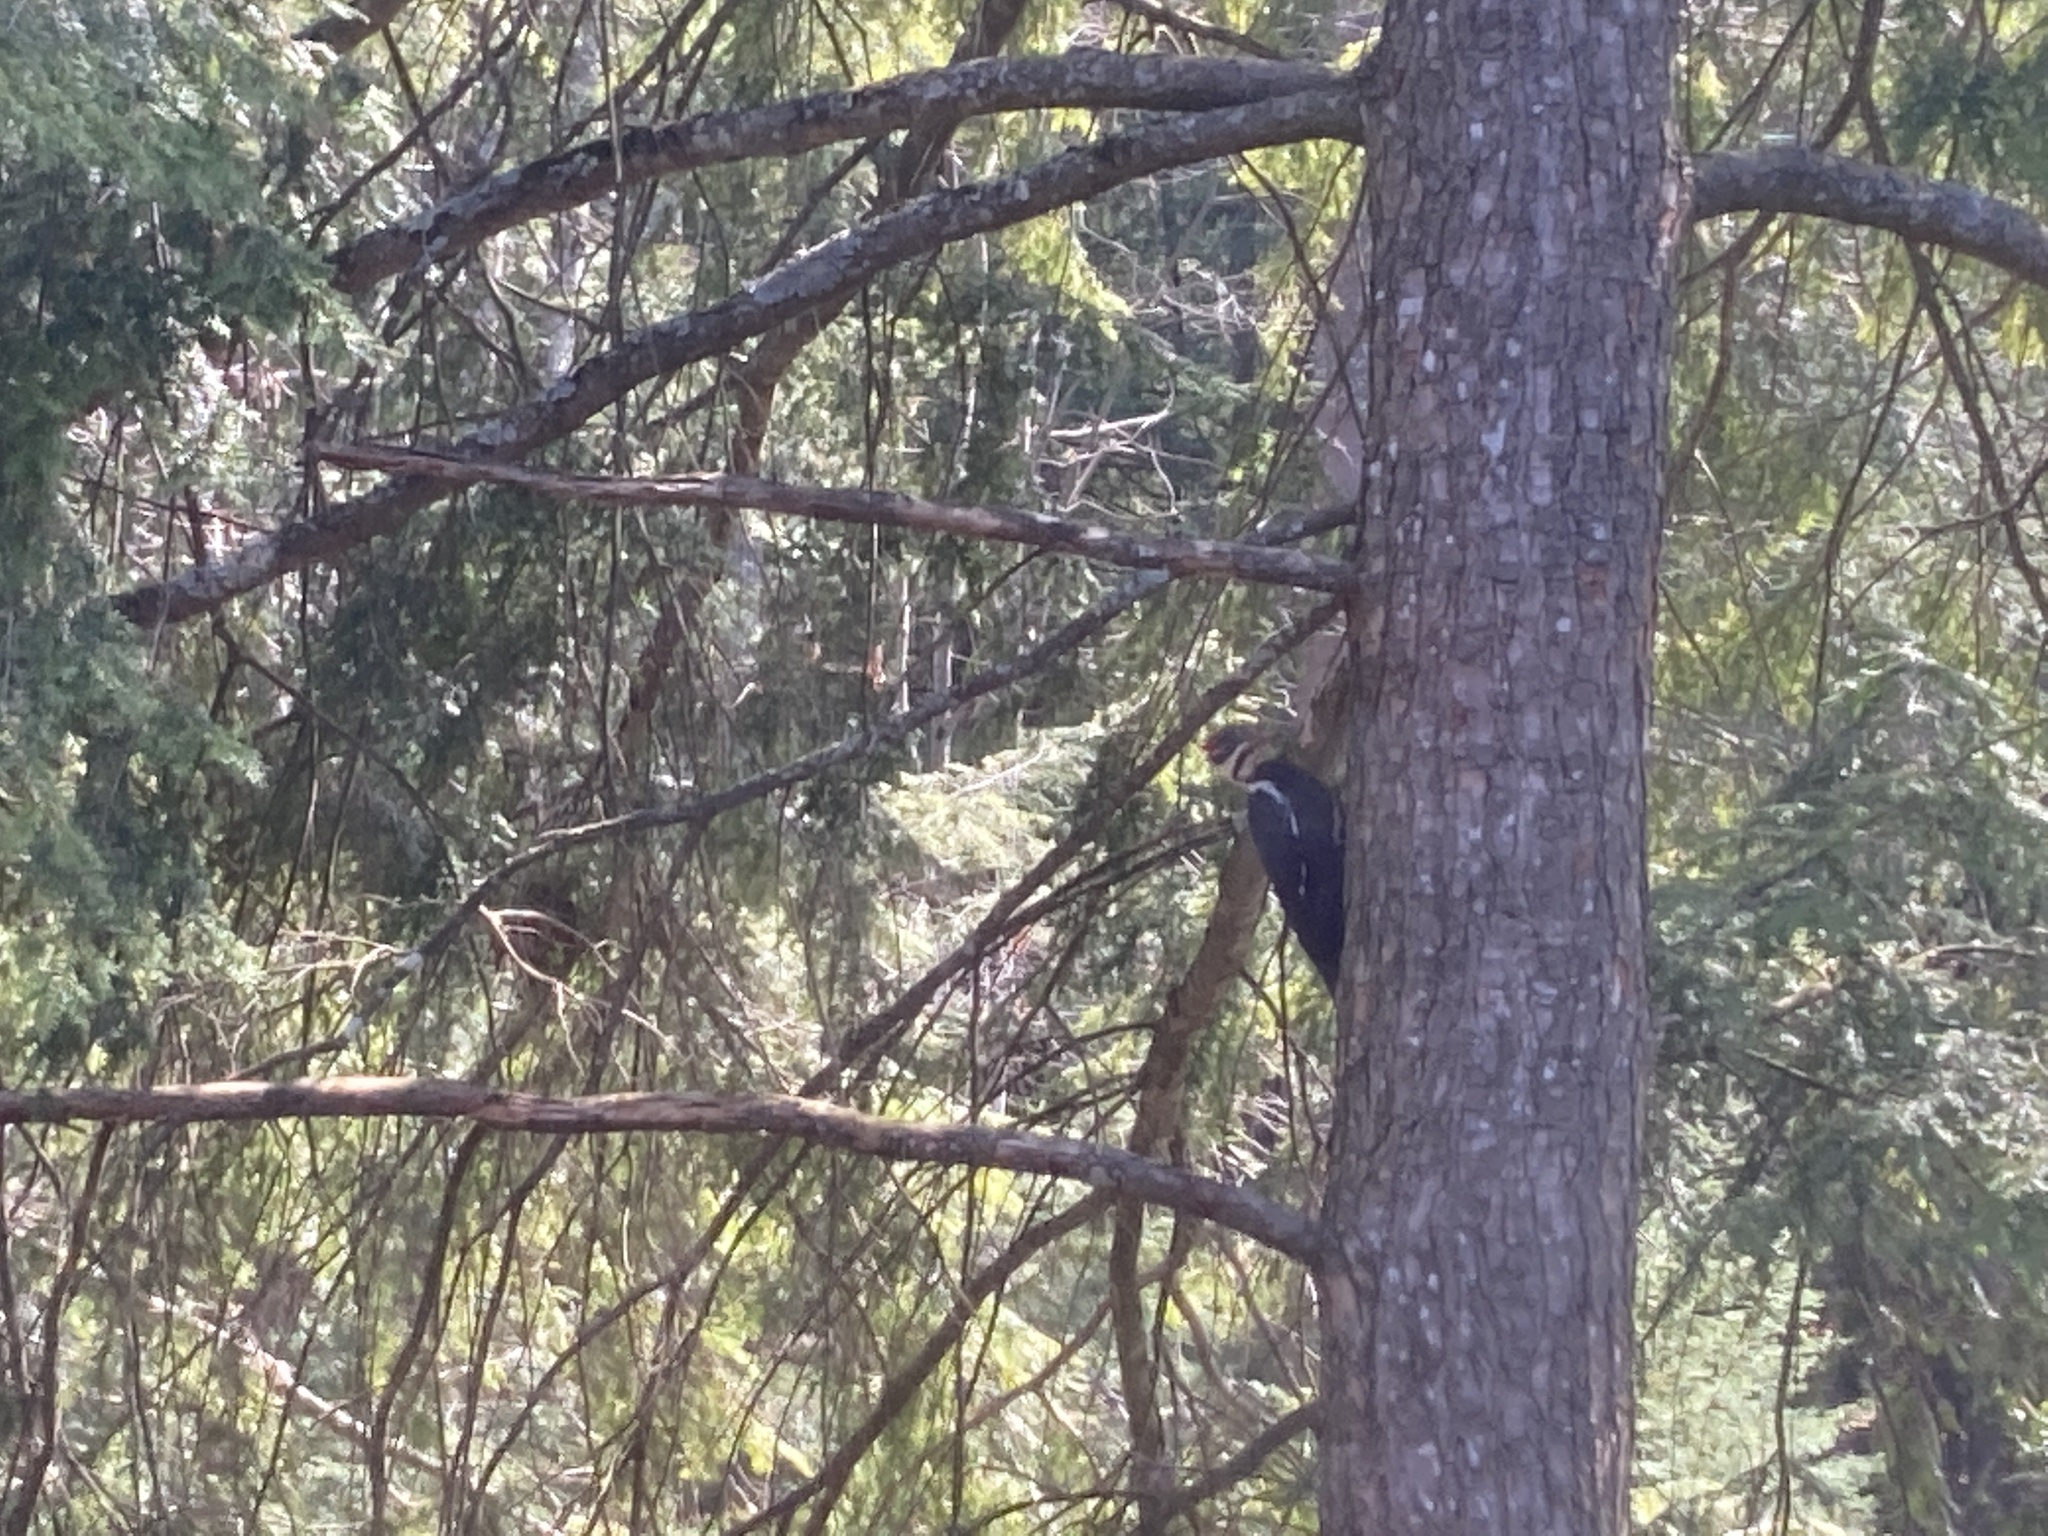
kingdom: Animalia
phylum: Chordata
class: Aves
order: Piciformes
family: Picidae
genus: Dryocopus
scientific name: Dryocopus pileatus
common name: Pileated woodpecker
